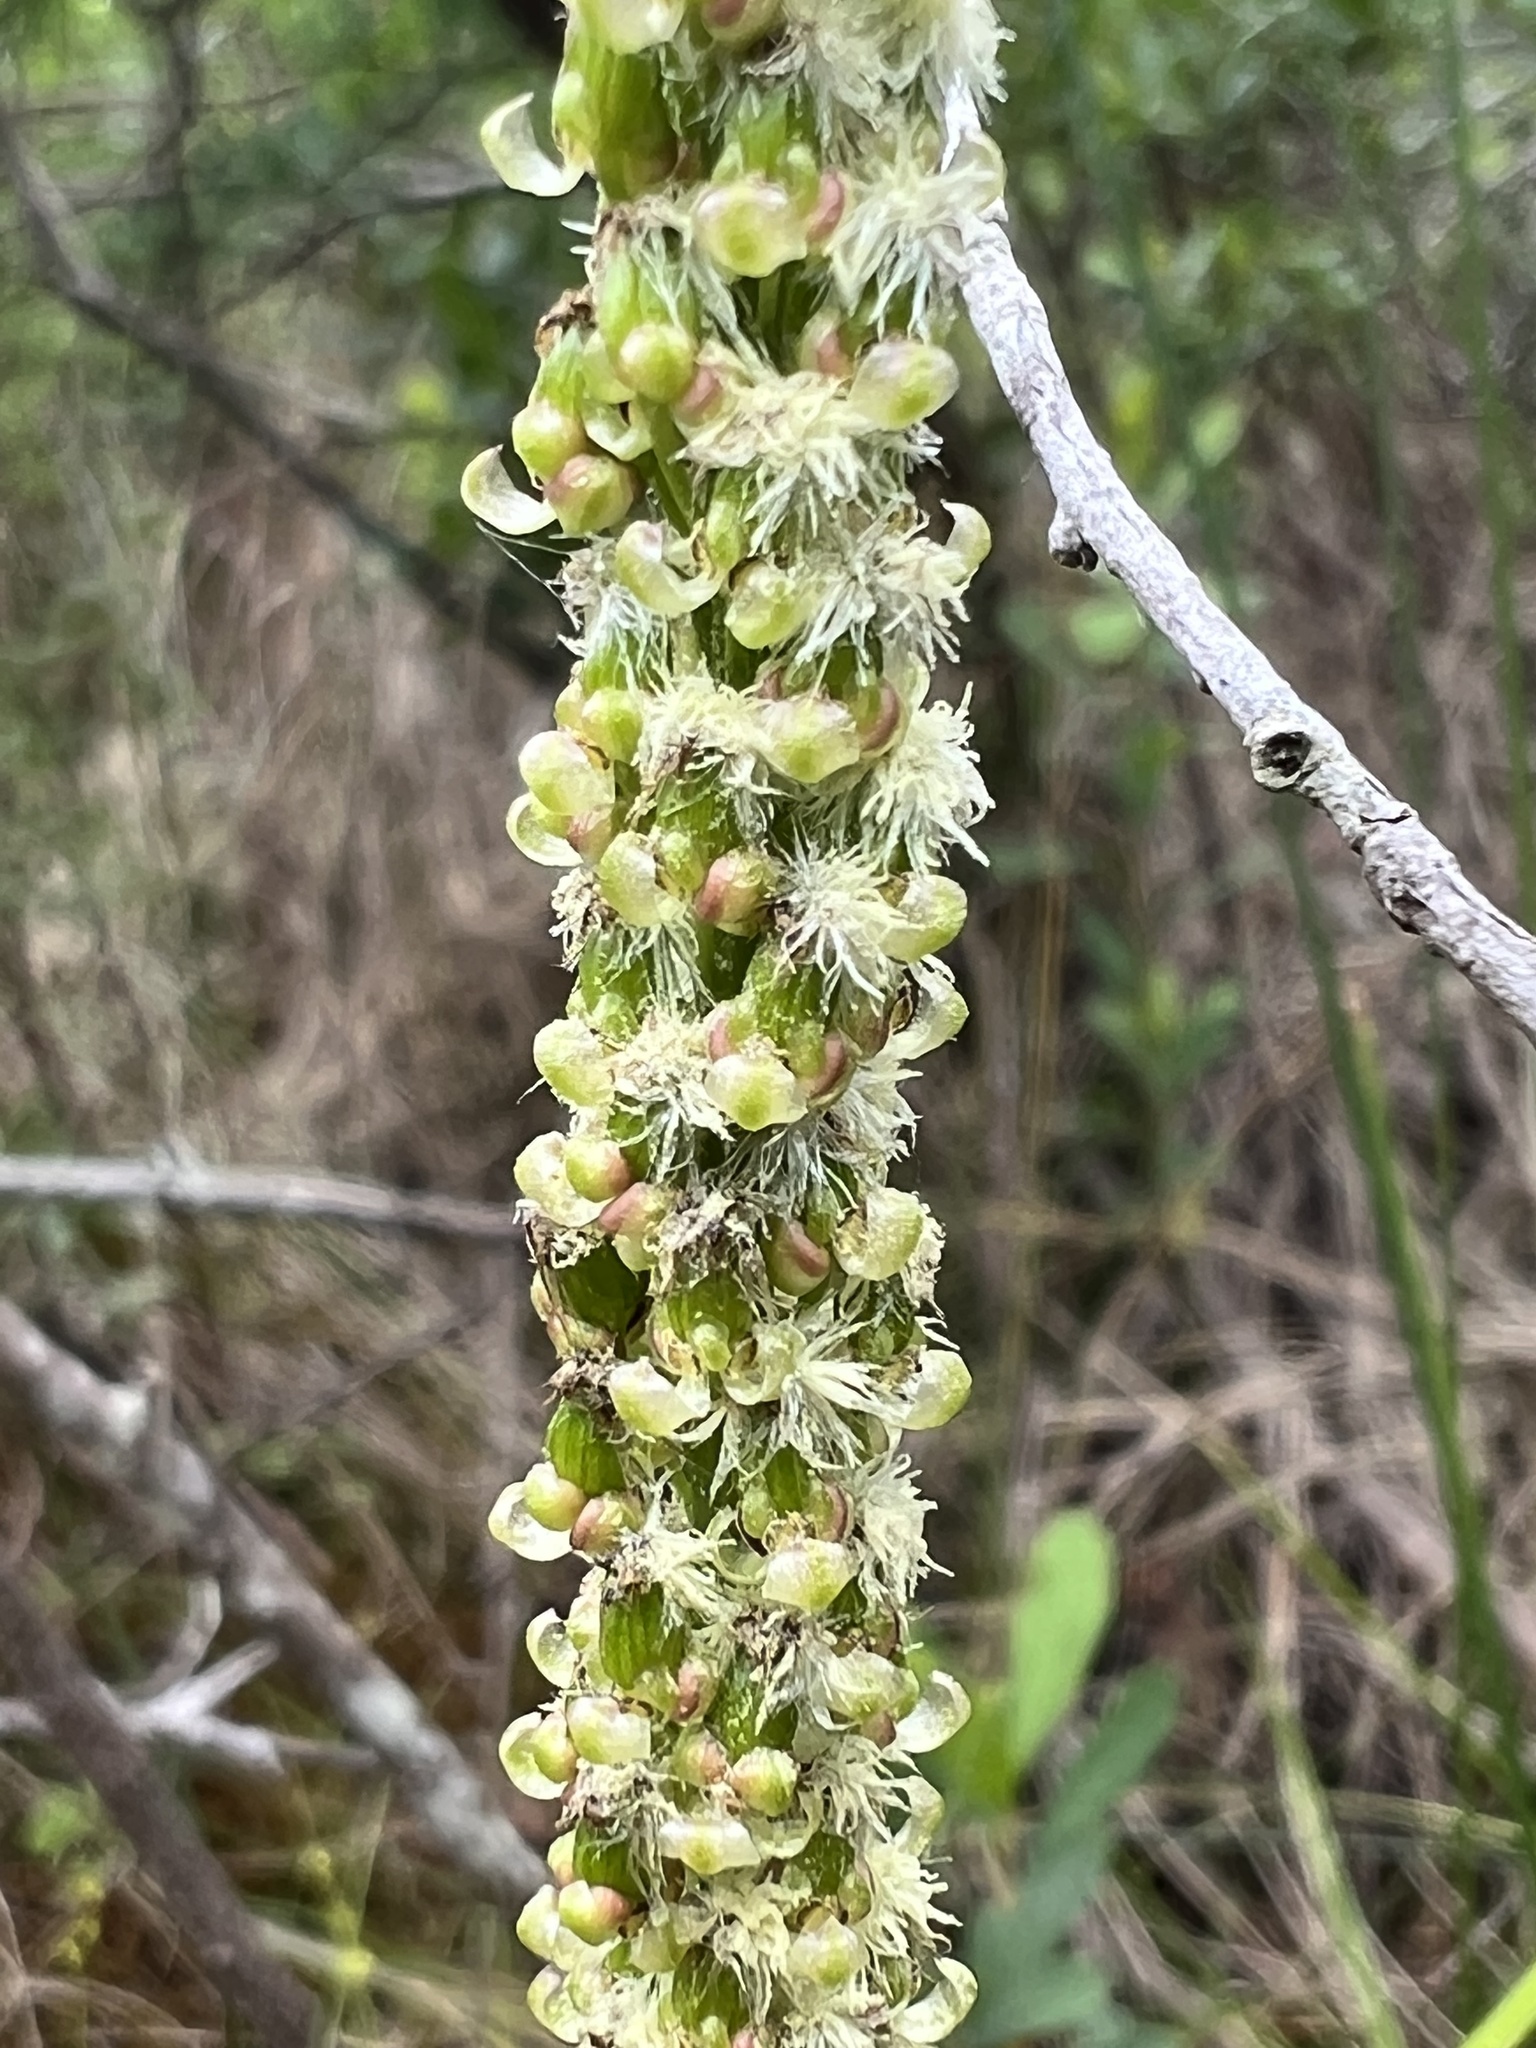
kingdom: Plantae
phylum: Tracheophyta
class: Liliopsida
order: Alismatales
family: Juncaginaceae
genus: Triglochin
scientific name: Triglochin maritima
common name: Sea arrowgrass
